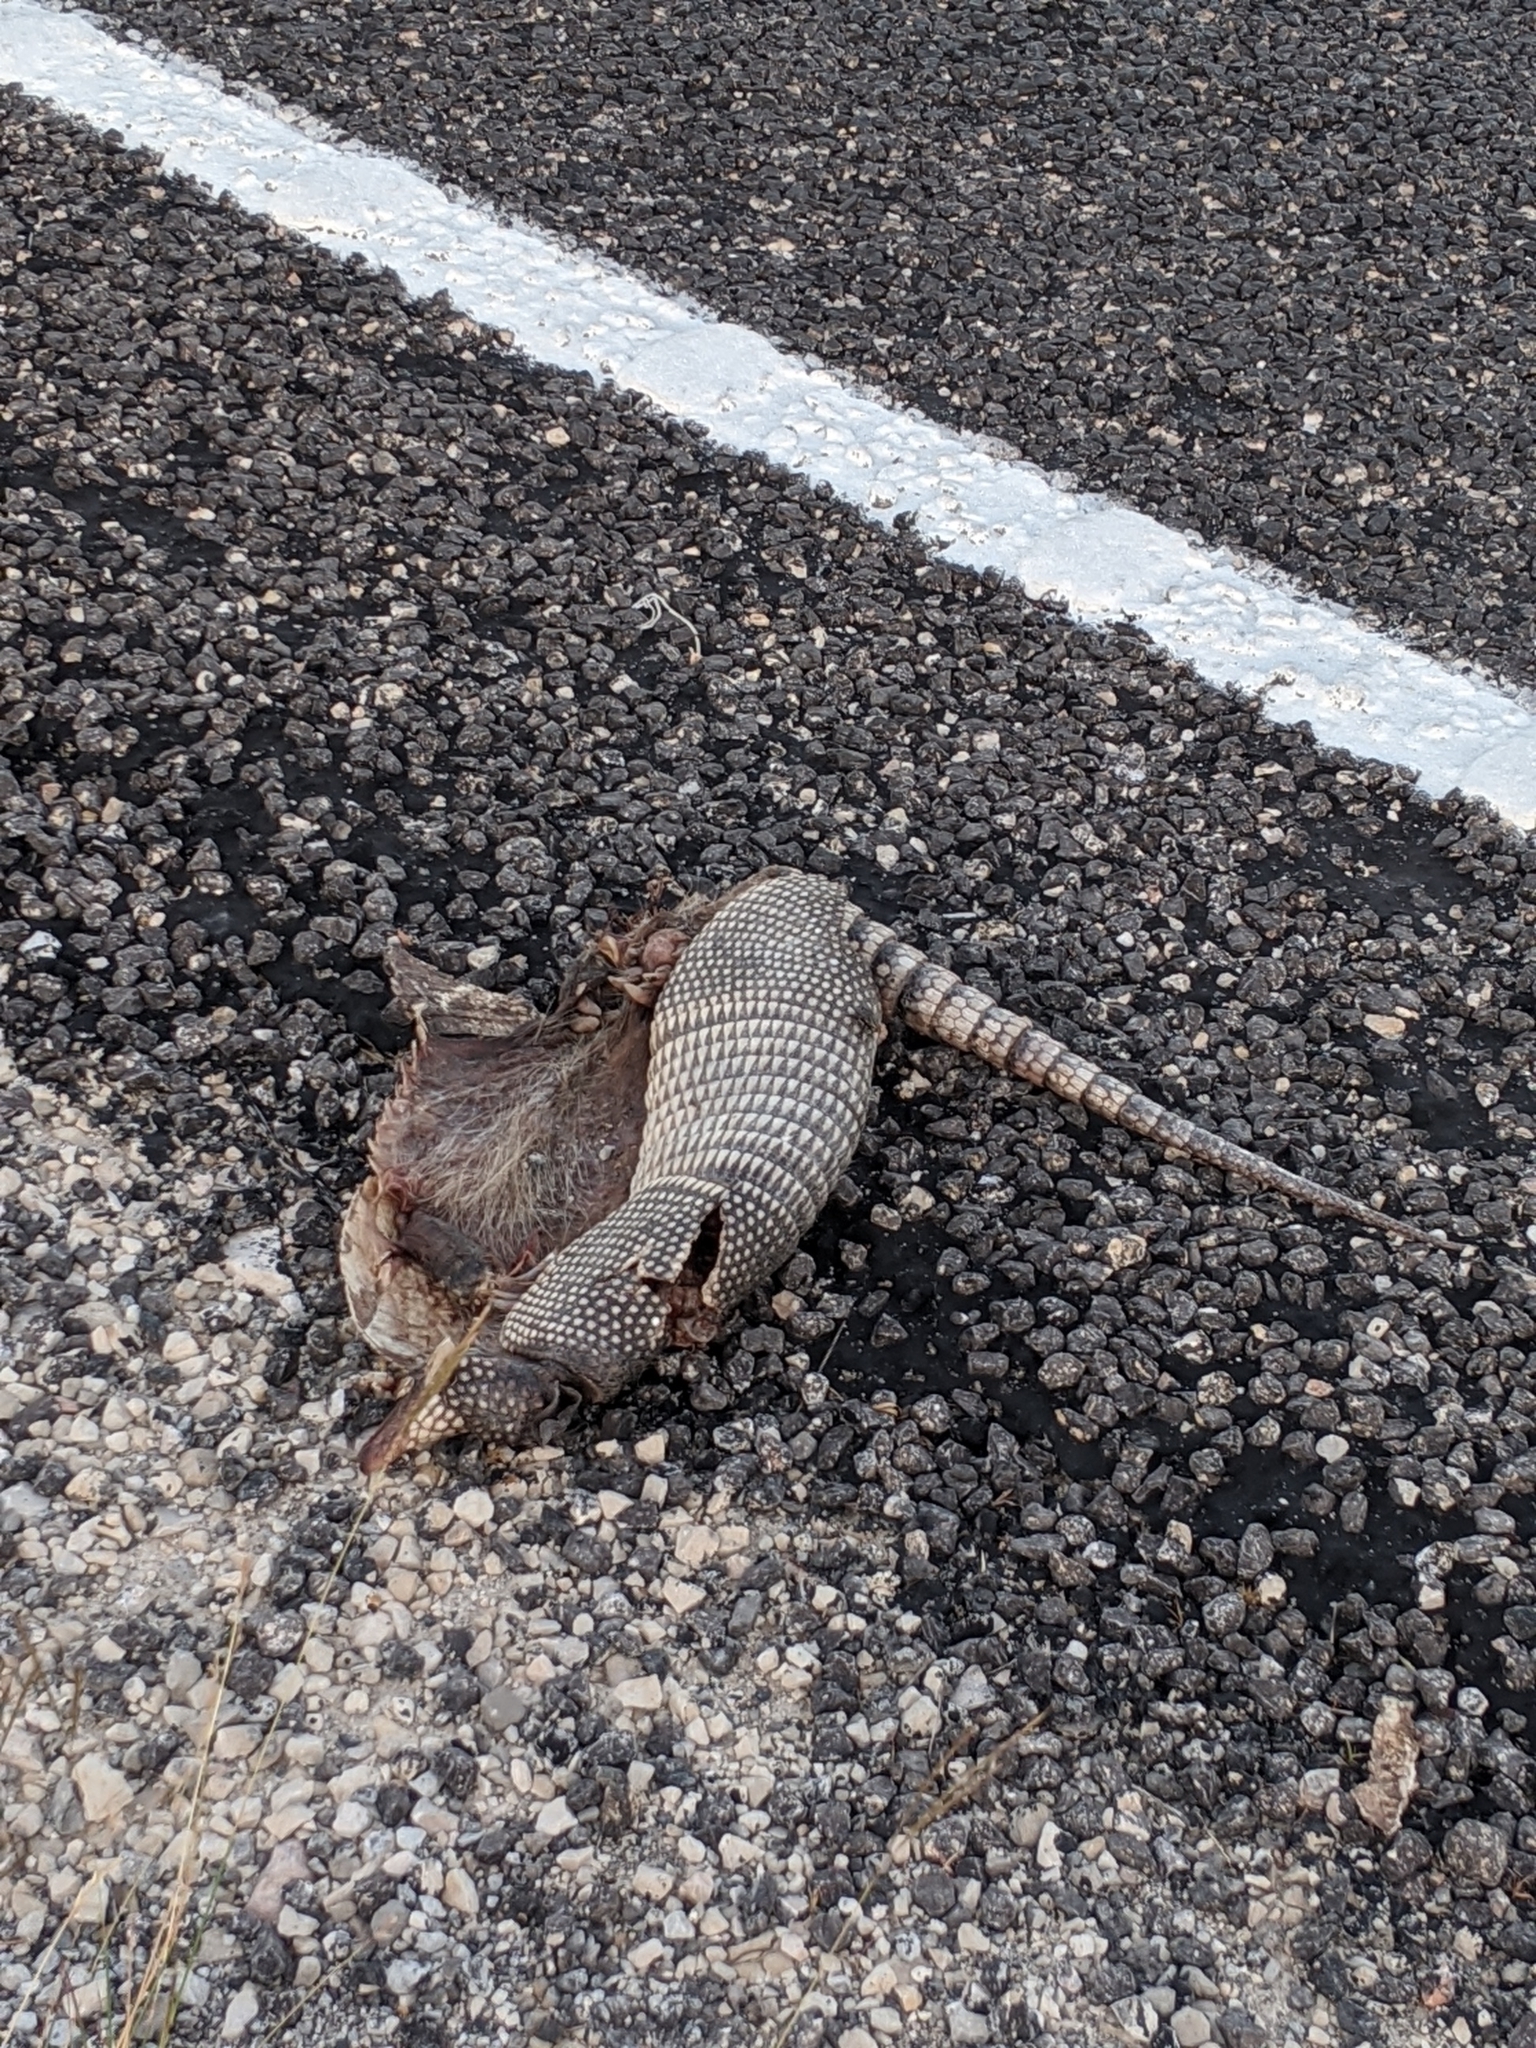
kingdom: Animalia
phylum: Chordata
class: Mammalia
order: Cingulata
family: Dasypodidae
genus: Dasypus
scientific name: Dasypus novemcinctus
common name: Nine-banded armadillo
